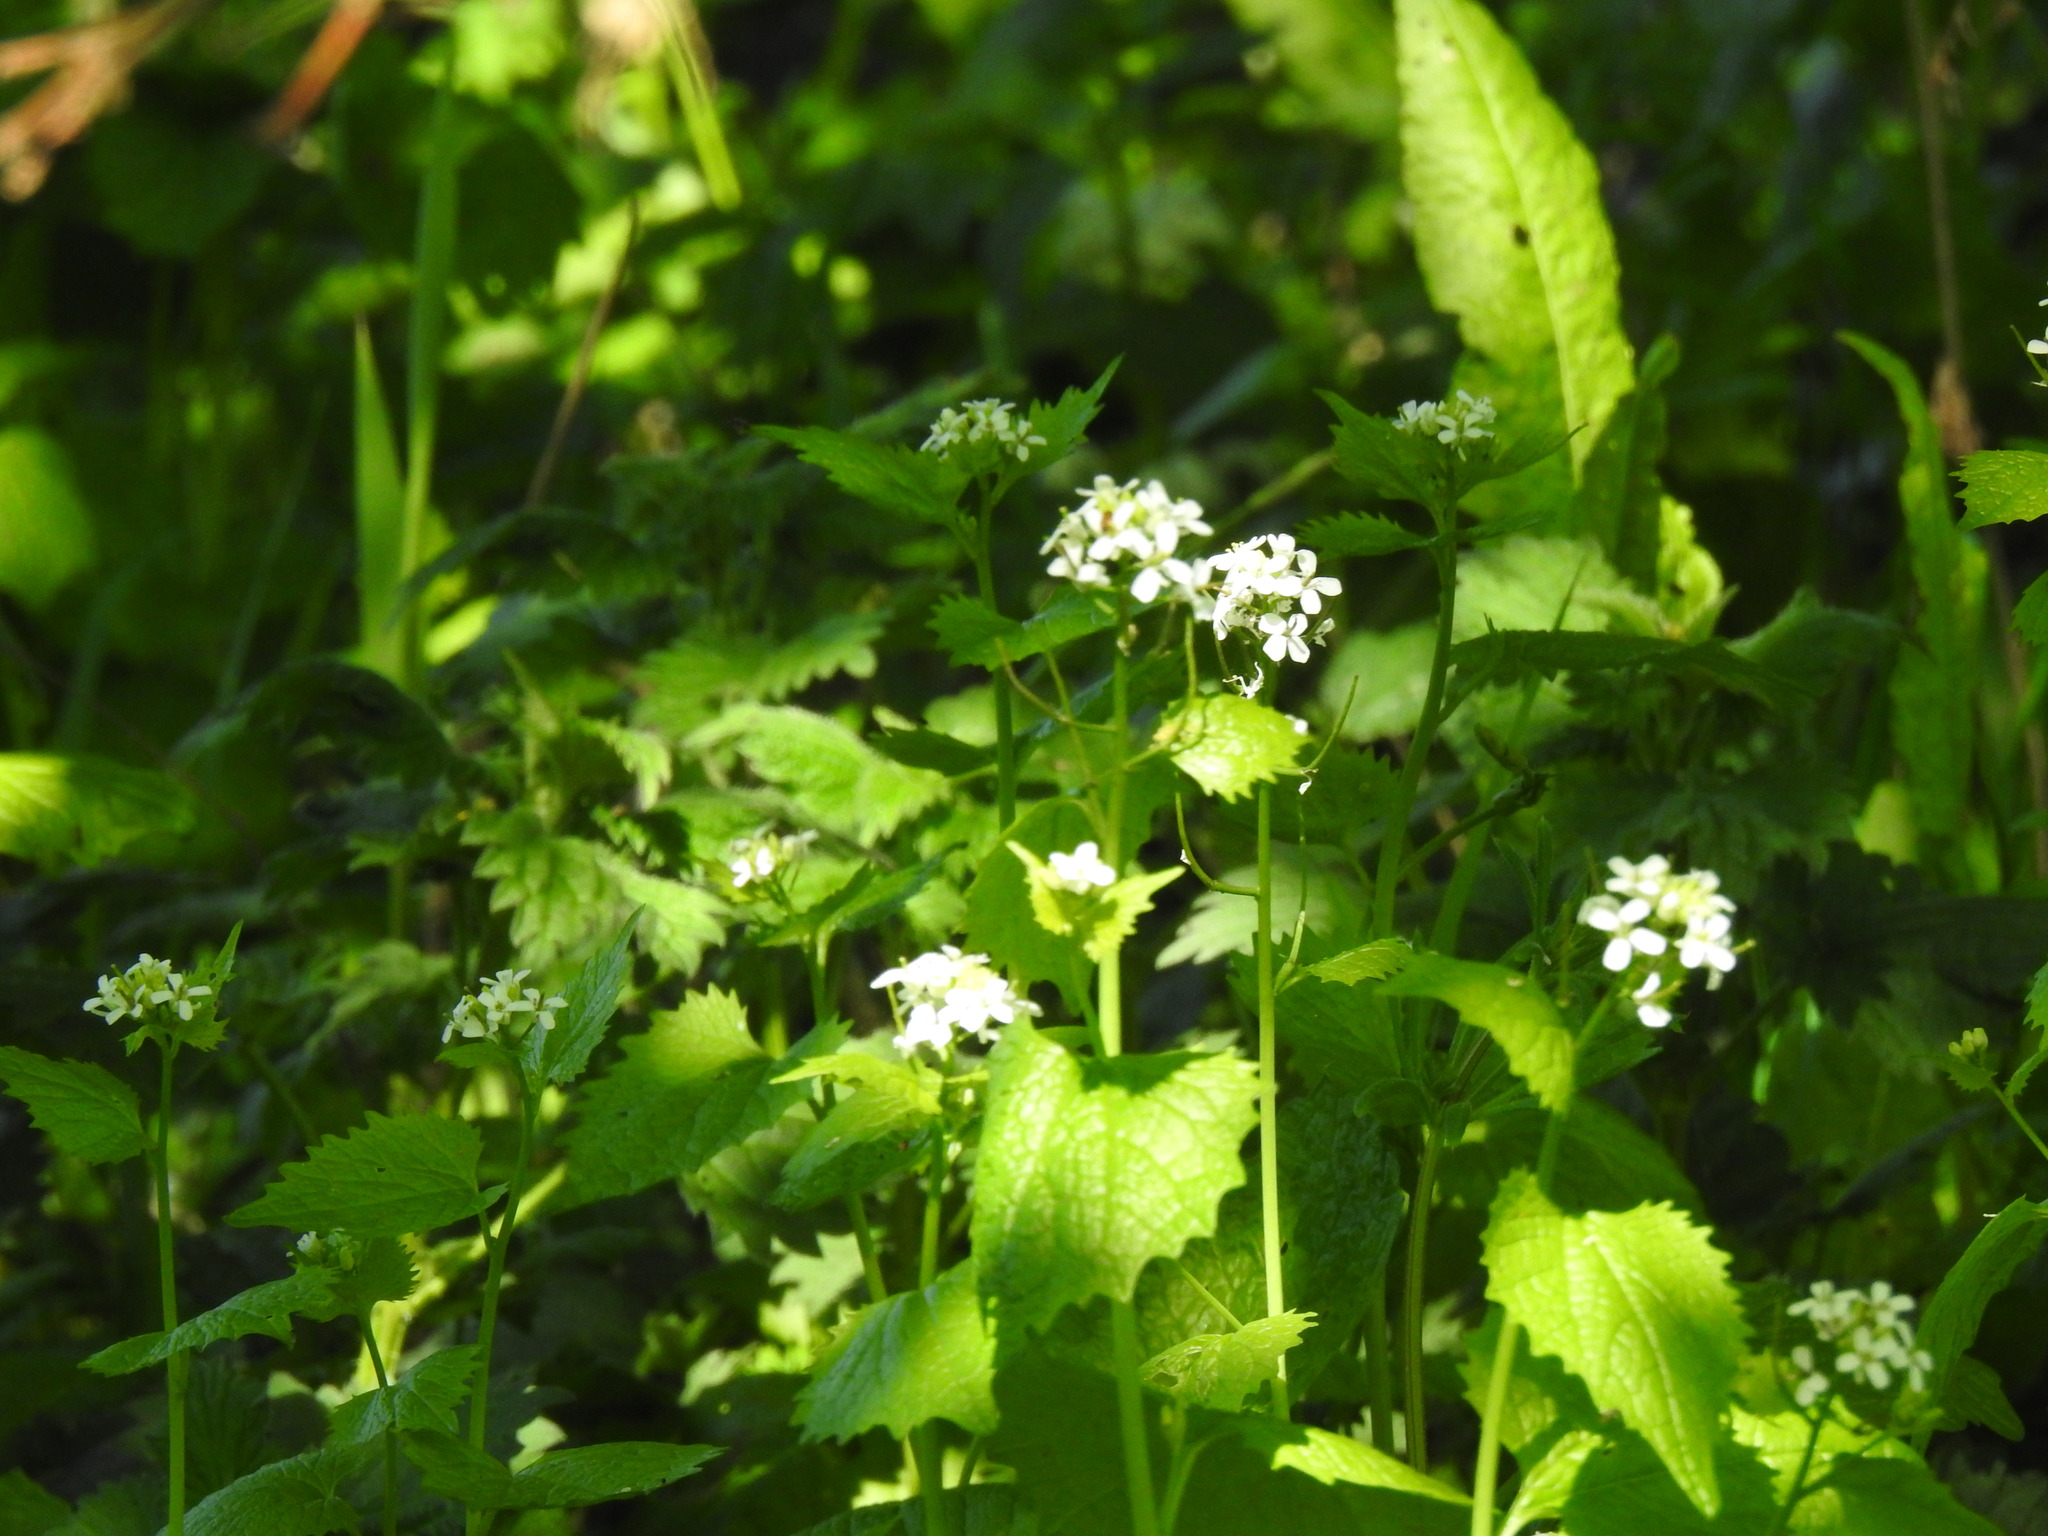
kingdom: Plantae
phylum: Tracheophyta
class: Magnoliopsida
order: Brassicales
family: Brassicaceae
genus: Alliaria
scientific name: Alliaria petiolata
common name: Garlic mustard
